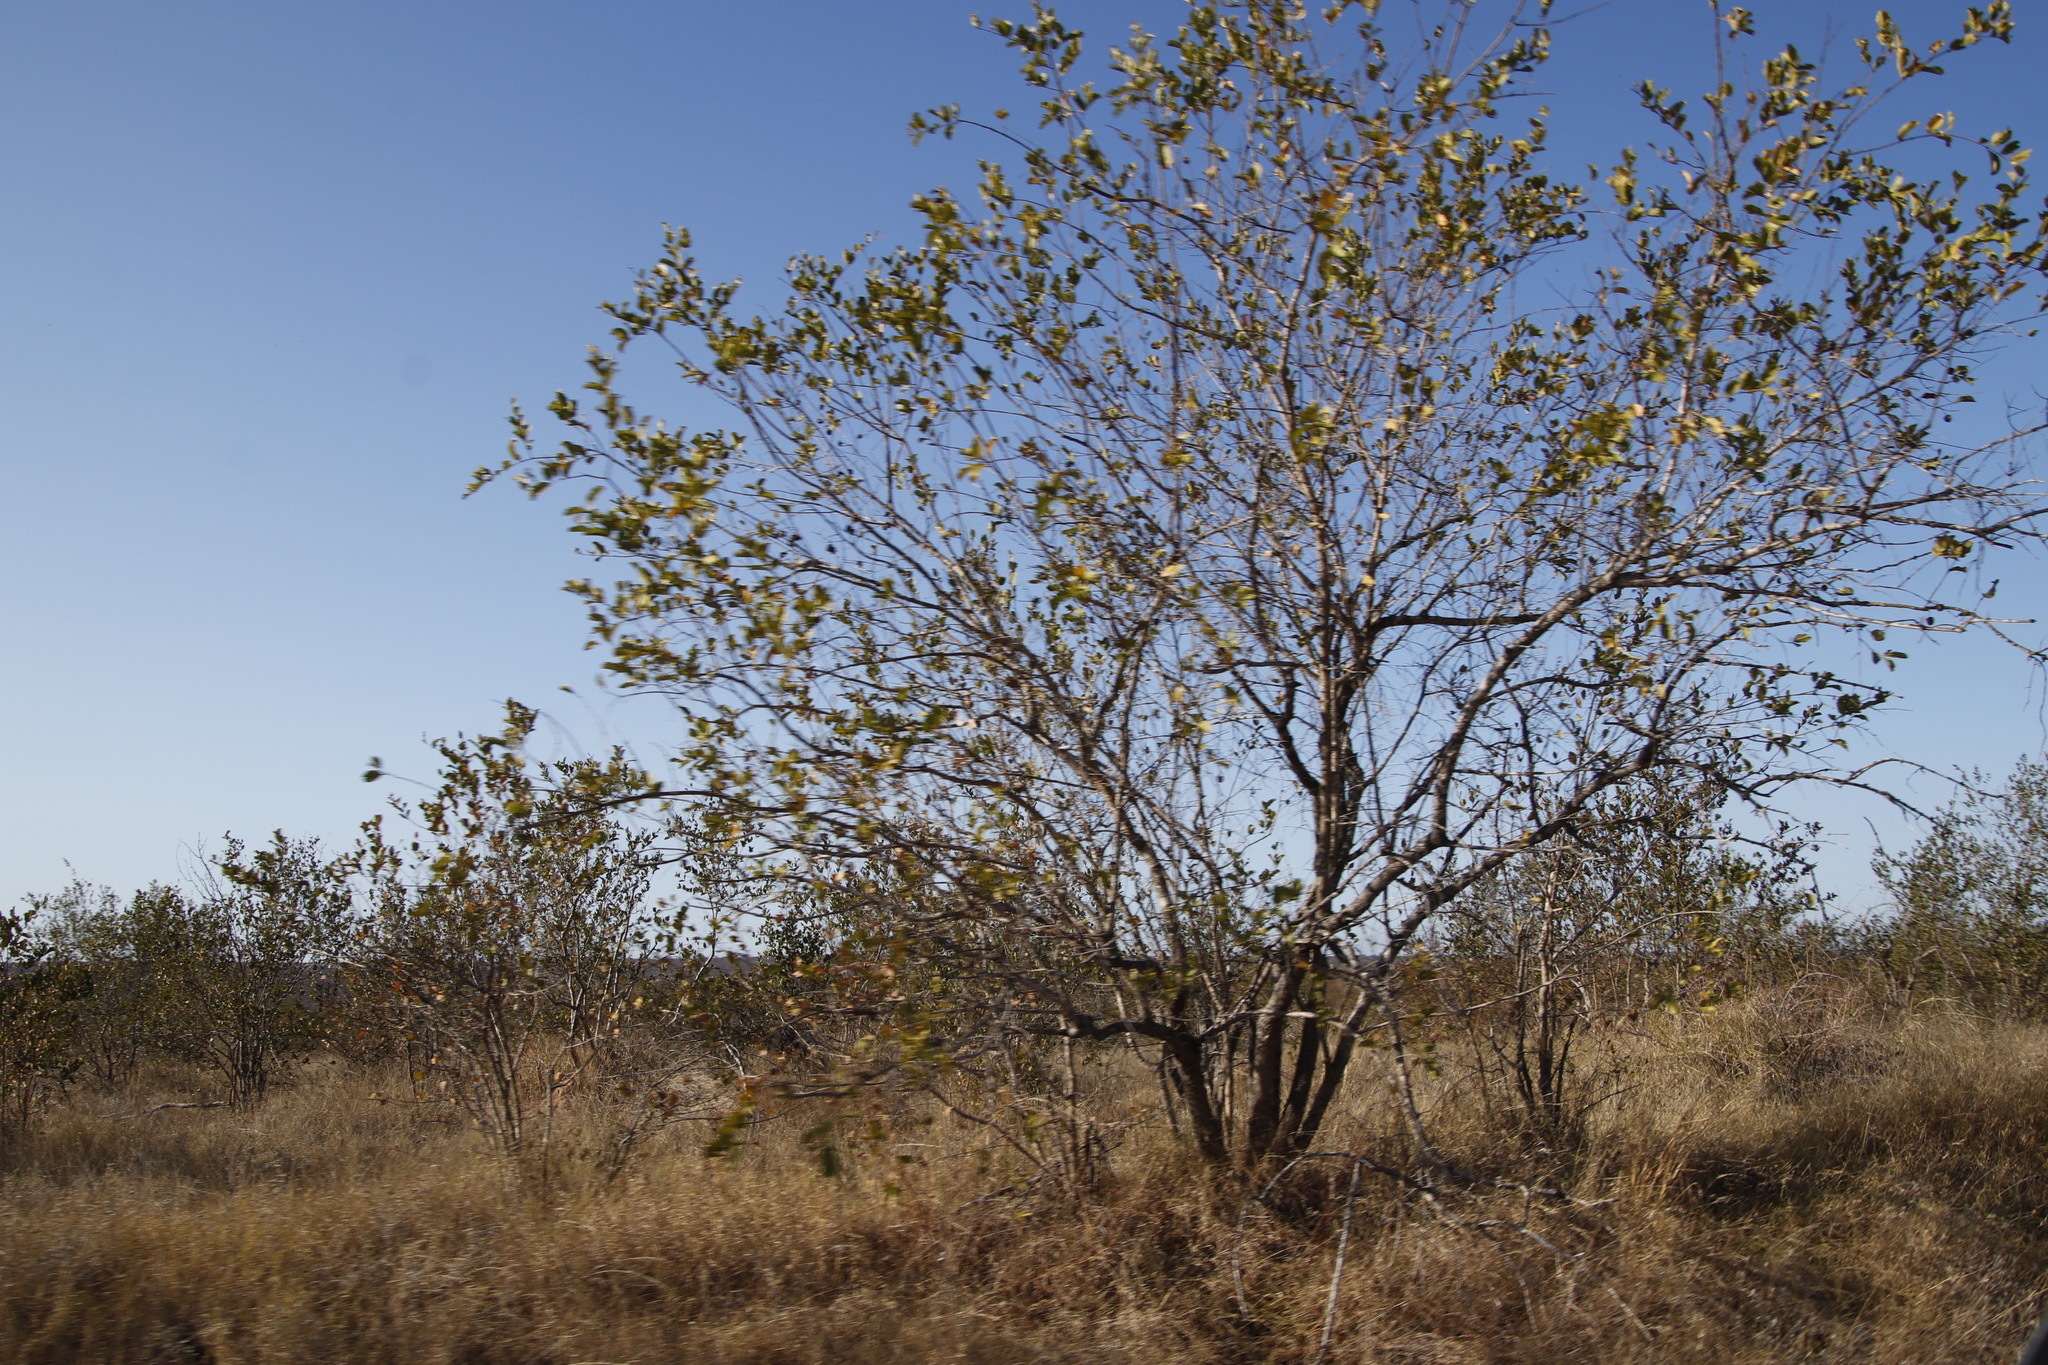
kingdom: Plantae
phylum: Tracheophyta
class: Magnoliopsida
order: Myrtales
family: Combretaceae
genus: Combretum
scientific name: Combretum apiculatum
